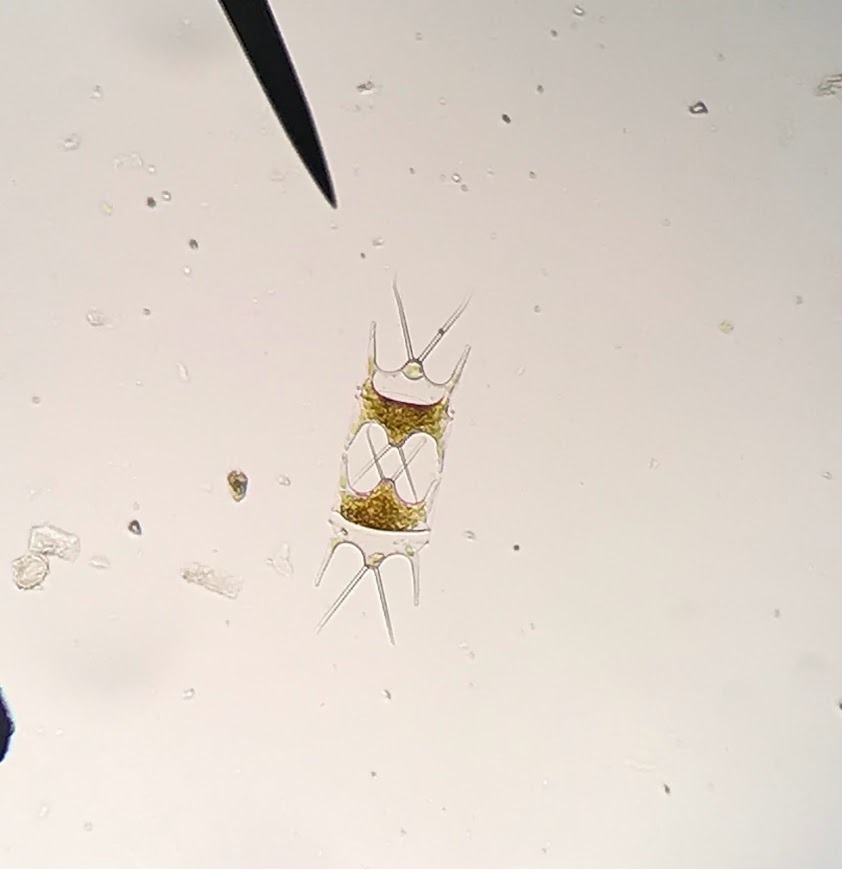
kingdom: Chromista
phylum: Ochrophyta
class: Bacillariophyceae
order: Triceratiales
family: Triceratiaceae
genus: Hobaniella
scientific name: Hobaniella longicruris
